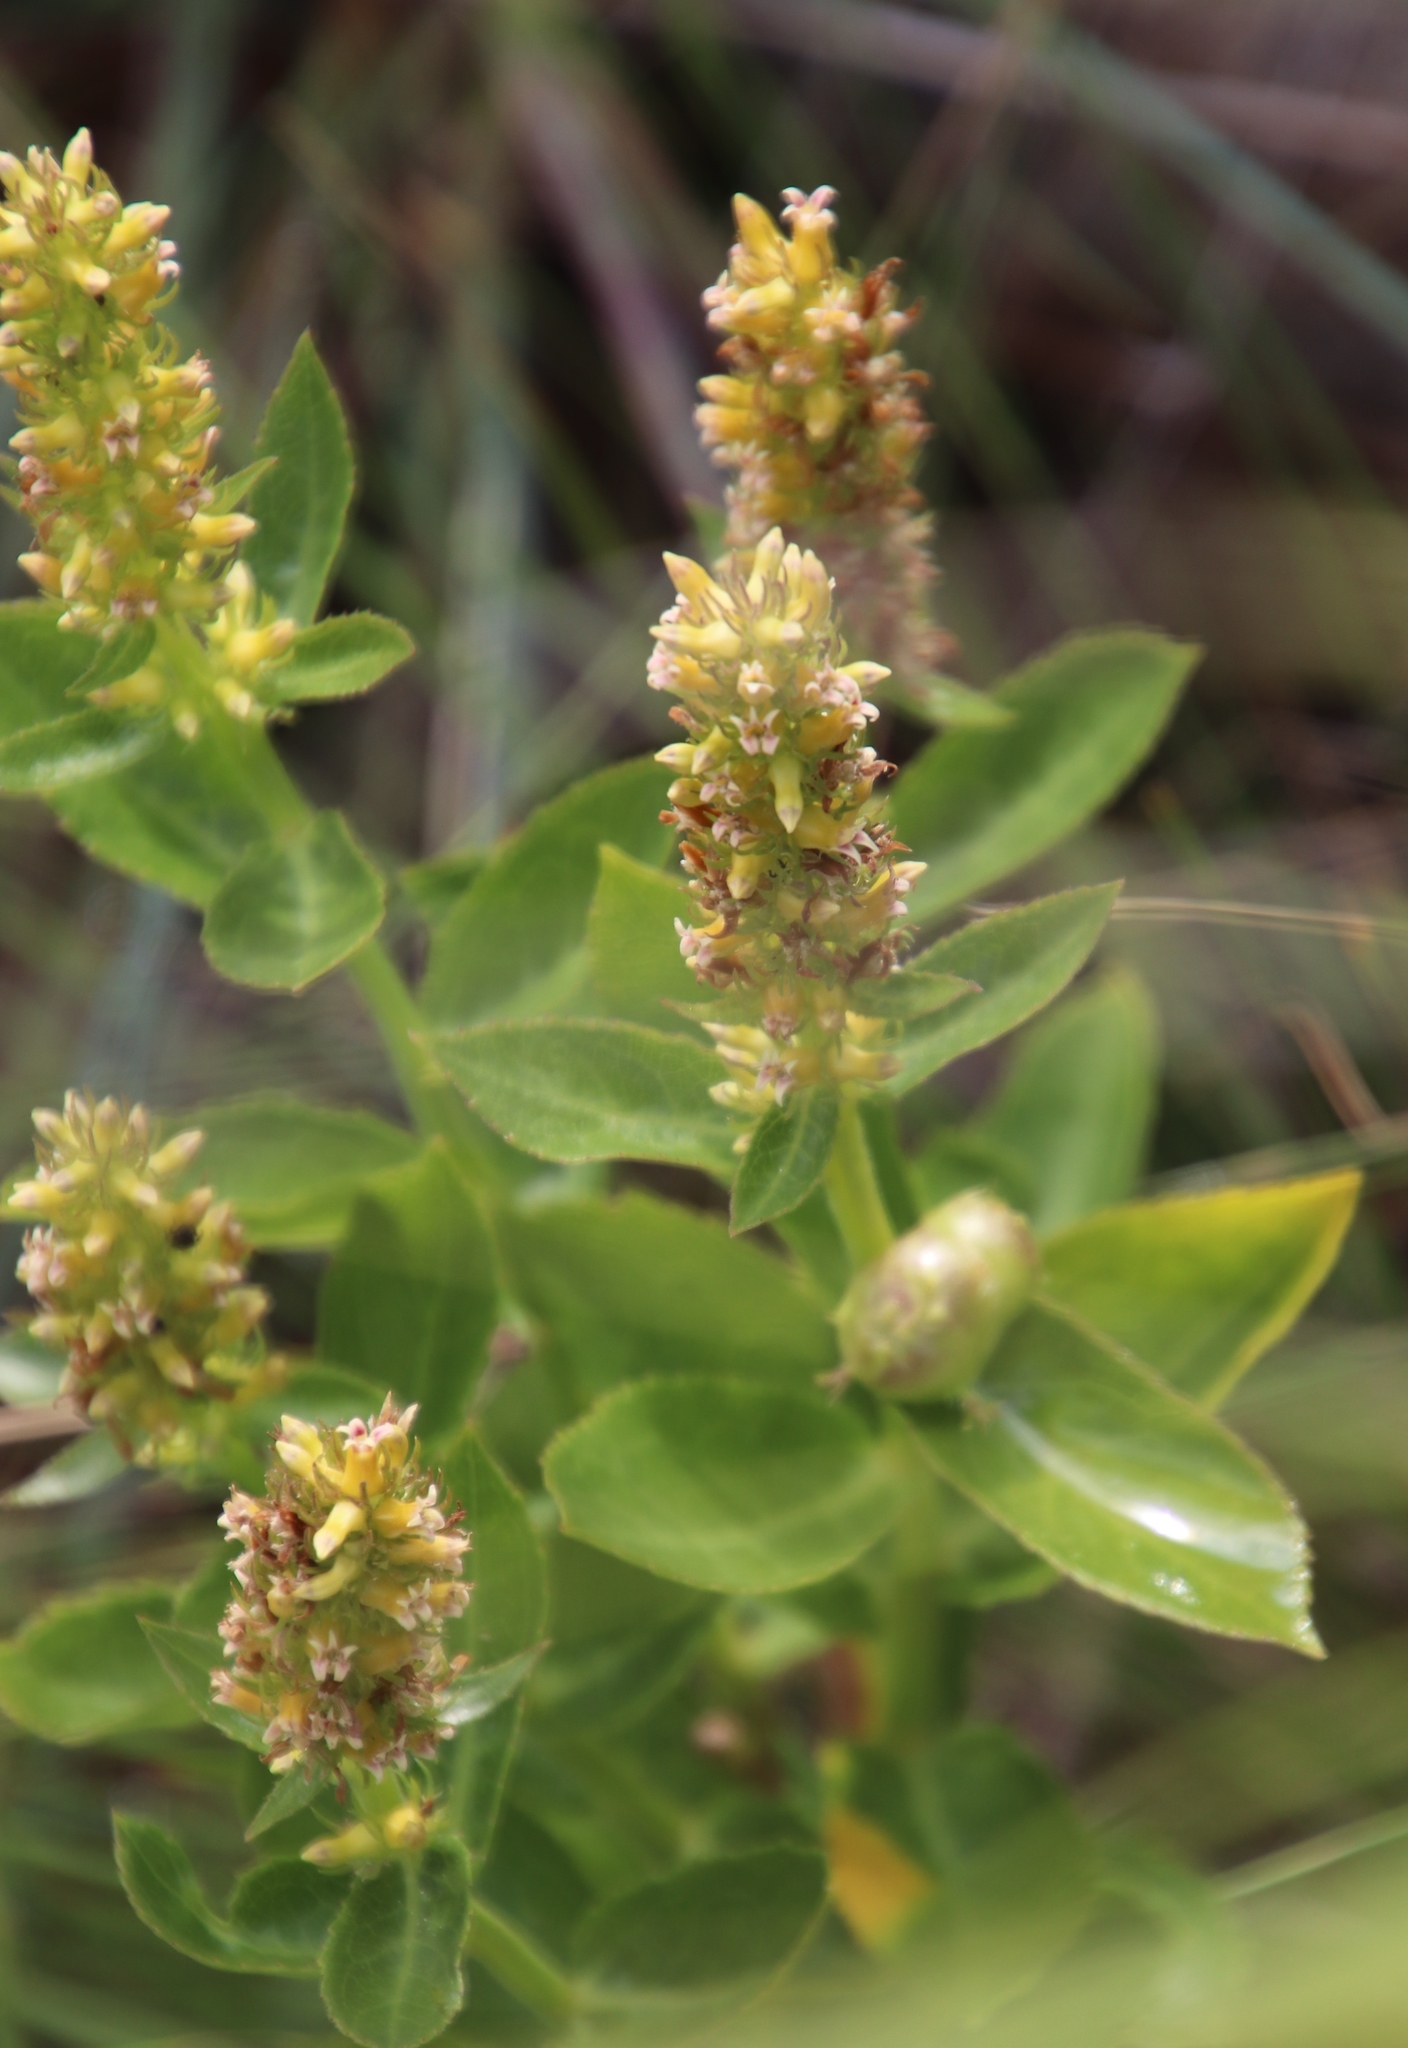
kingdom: Plantae
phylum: Tracheophyta
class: Magnoliopsida
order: Asterales
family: Campanulaceae
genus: Cyphia
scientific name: Cyphia elata
